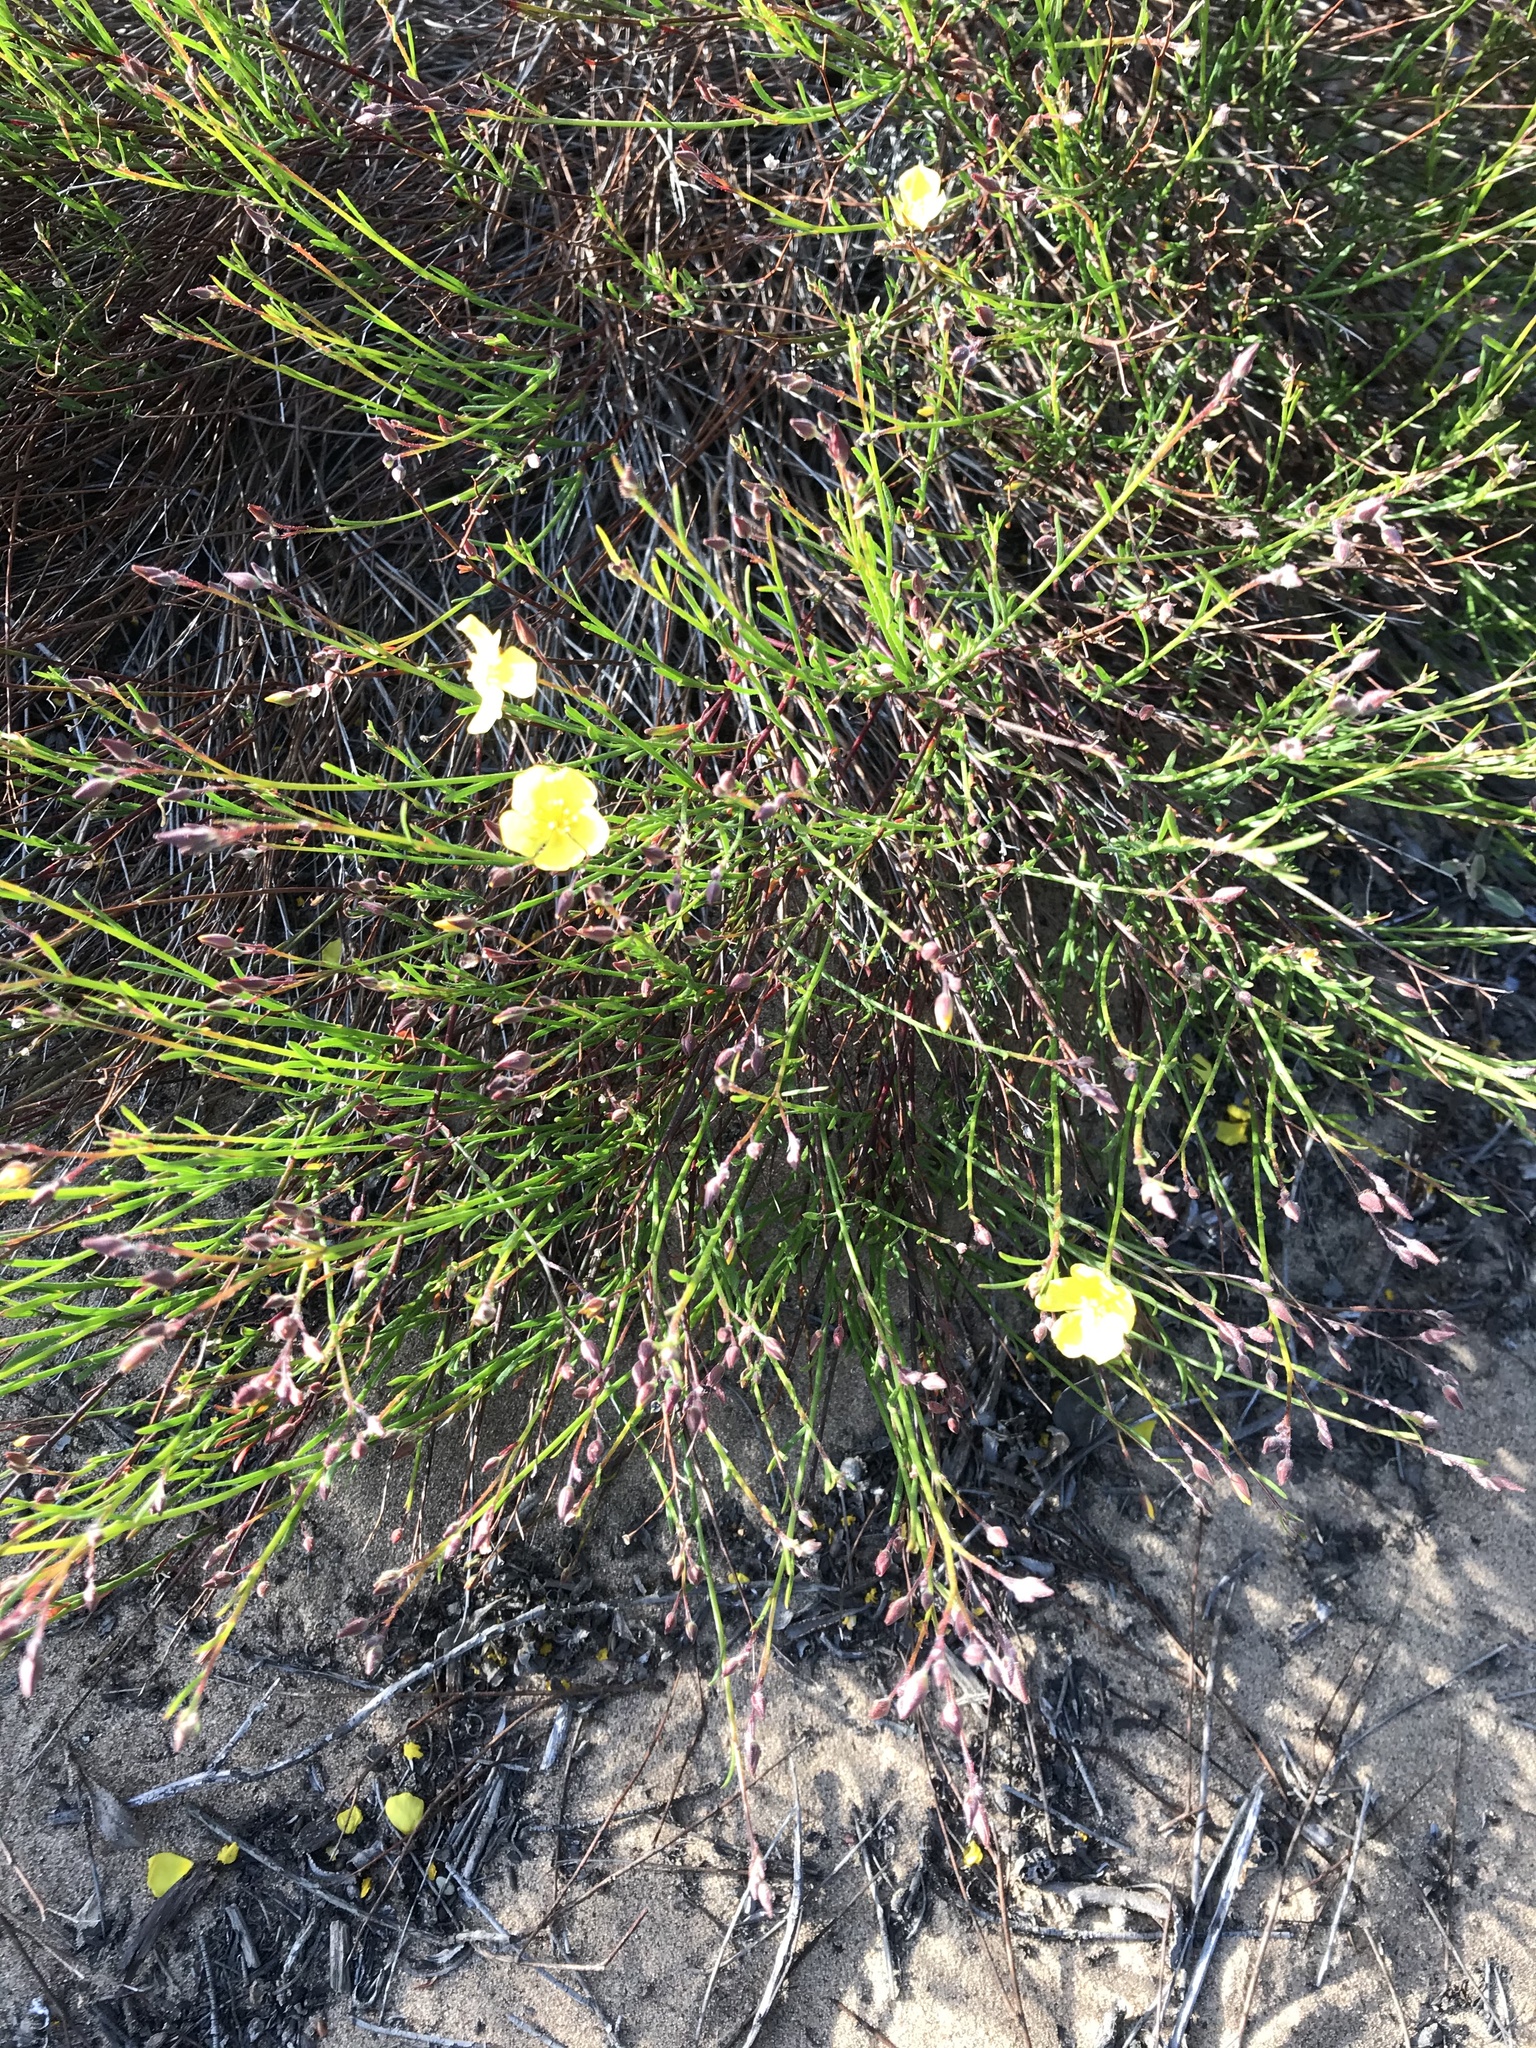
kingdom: Plantae
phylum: Tracheophyta
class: Magnoliopsida
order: Malvales
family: Cistaceae
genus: Crocanthemum
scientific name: Crocanthemum scoparium
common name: Broom-rose
